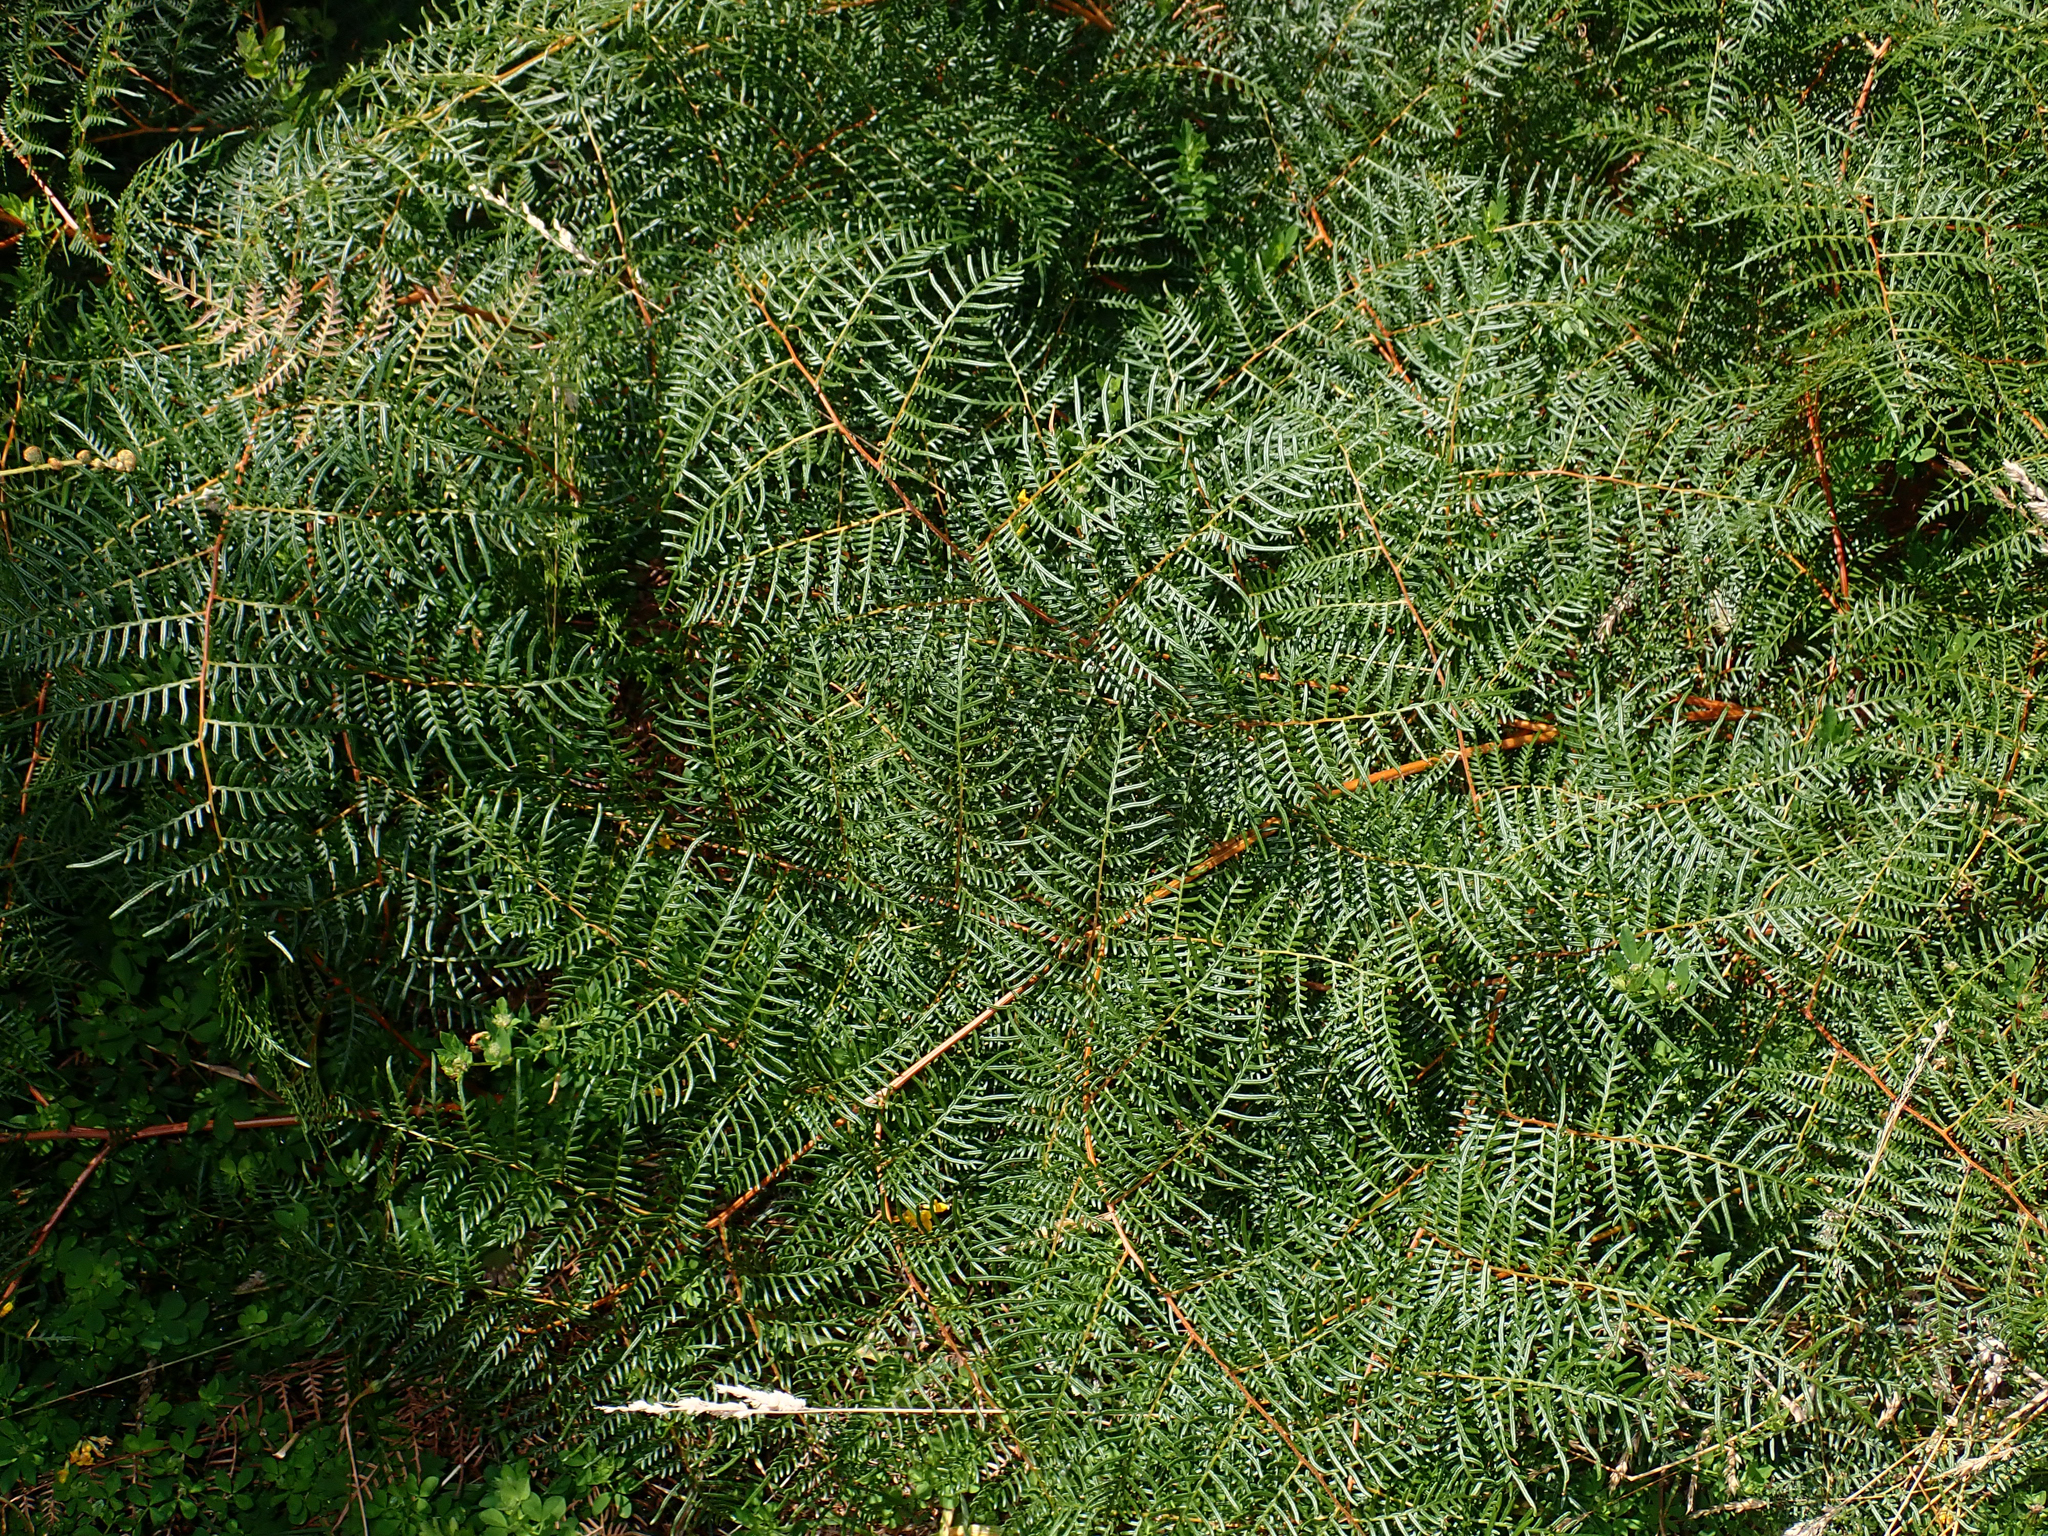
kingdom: Plantae
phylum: Tracheophyta
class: Polypodiopsida
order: Polypodiales
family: Dennstaedtiaceae
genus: Pteridium
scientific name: Pteridium esculentum
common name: Bracken fern
